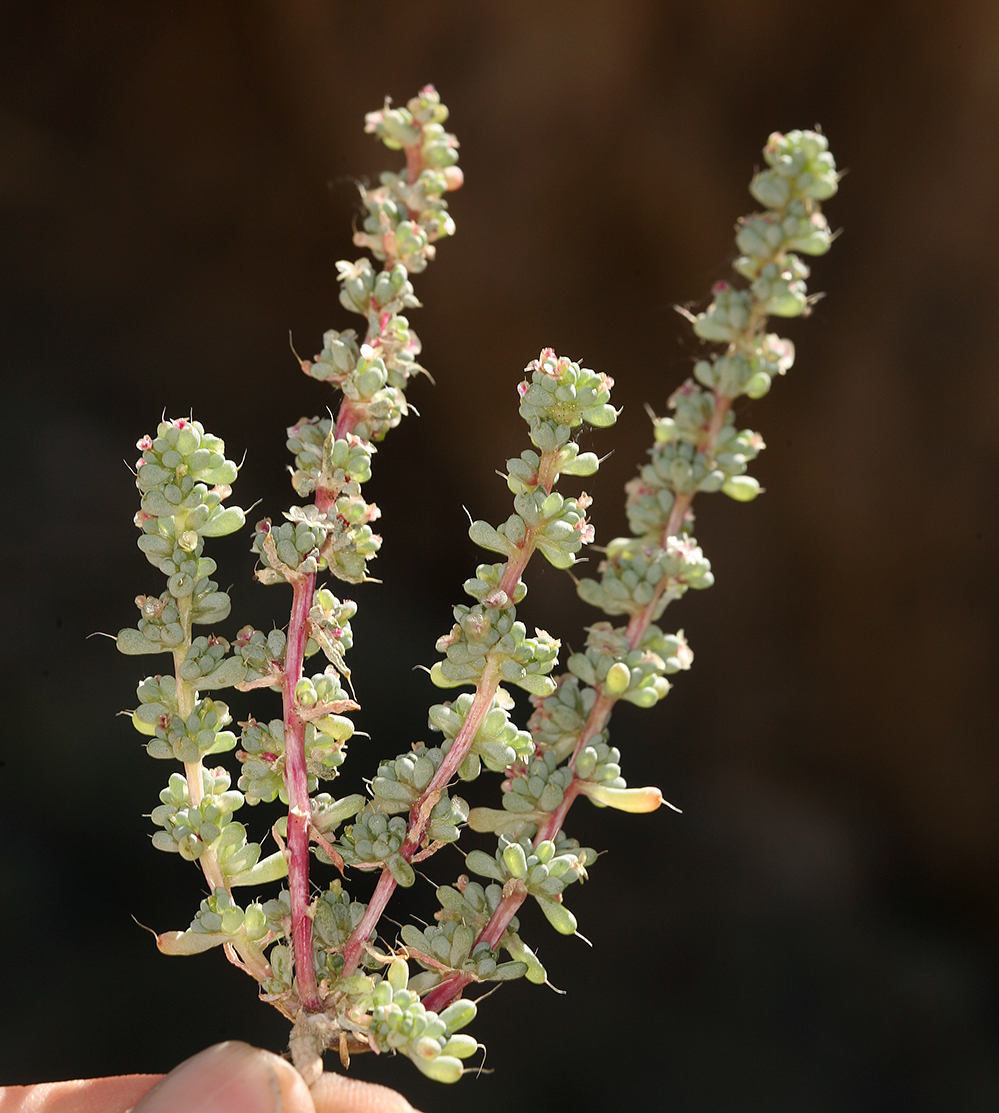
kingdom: Plantae
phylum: Tracheophyta
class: Magnoliopsida
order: Caryophyllales
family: Amaranthaceae
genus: Halogeton
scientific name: Halogeton glomeratus
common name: Saltlover
